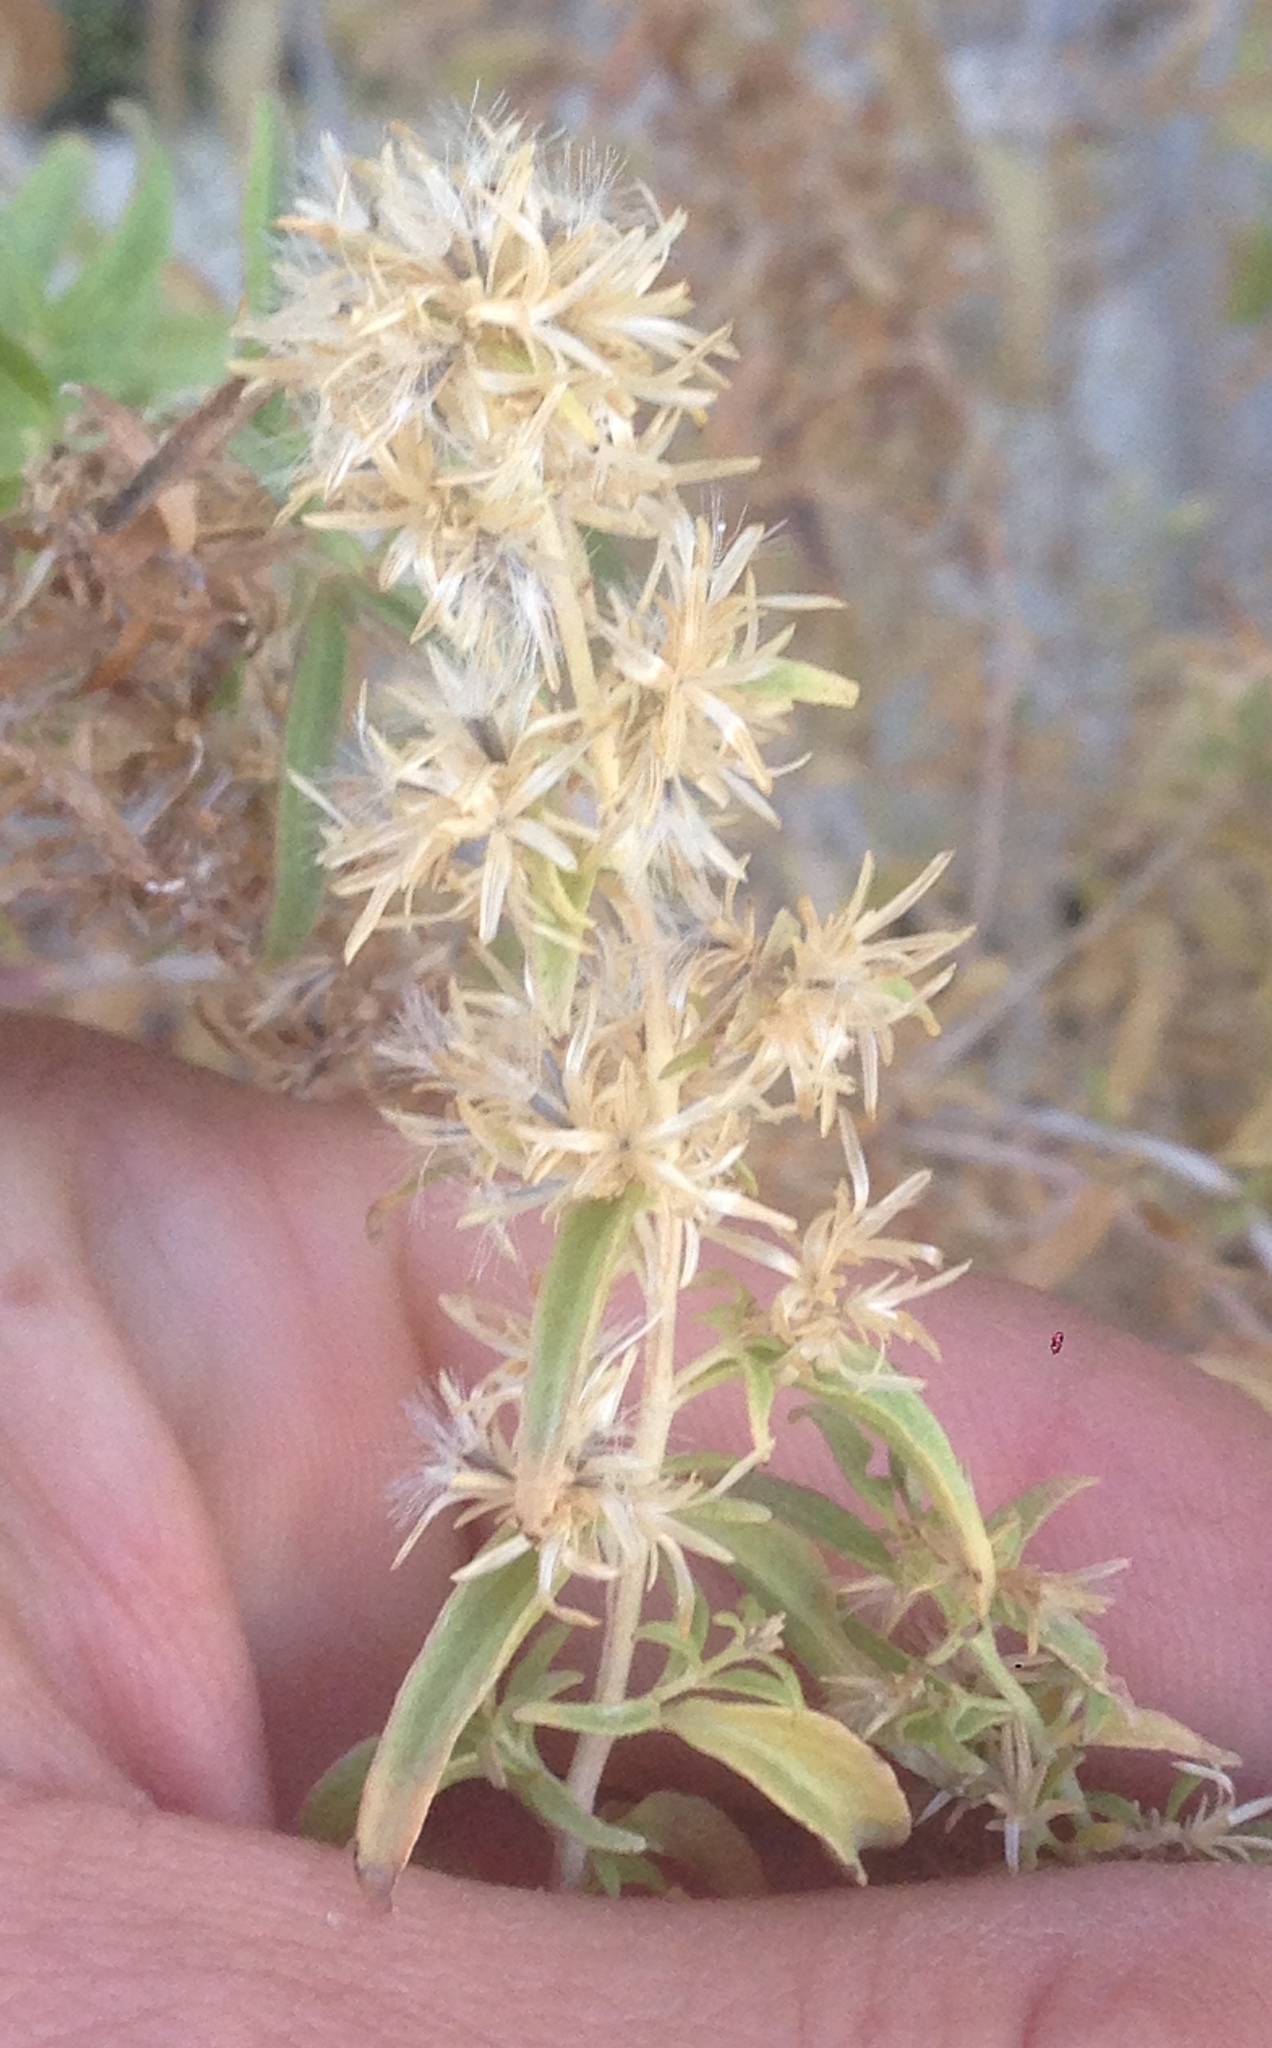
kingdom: Plantae
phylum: Tracheophyta
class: Magnoliopsida
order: Asterales
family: Asteraceae
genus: Brickellia
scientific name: Brickellia longifolia
